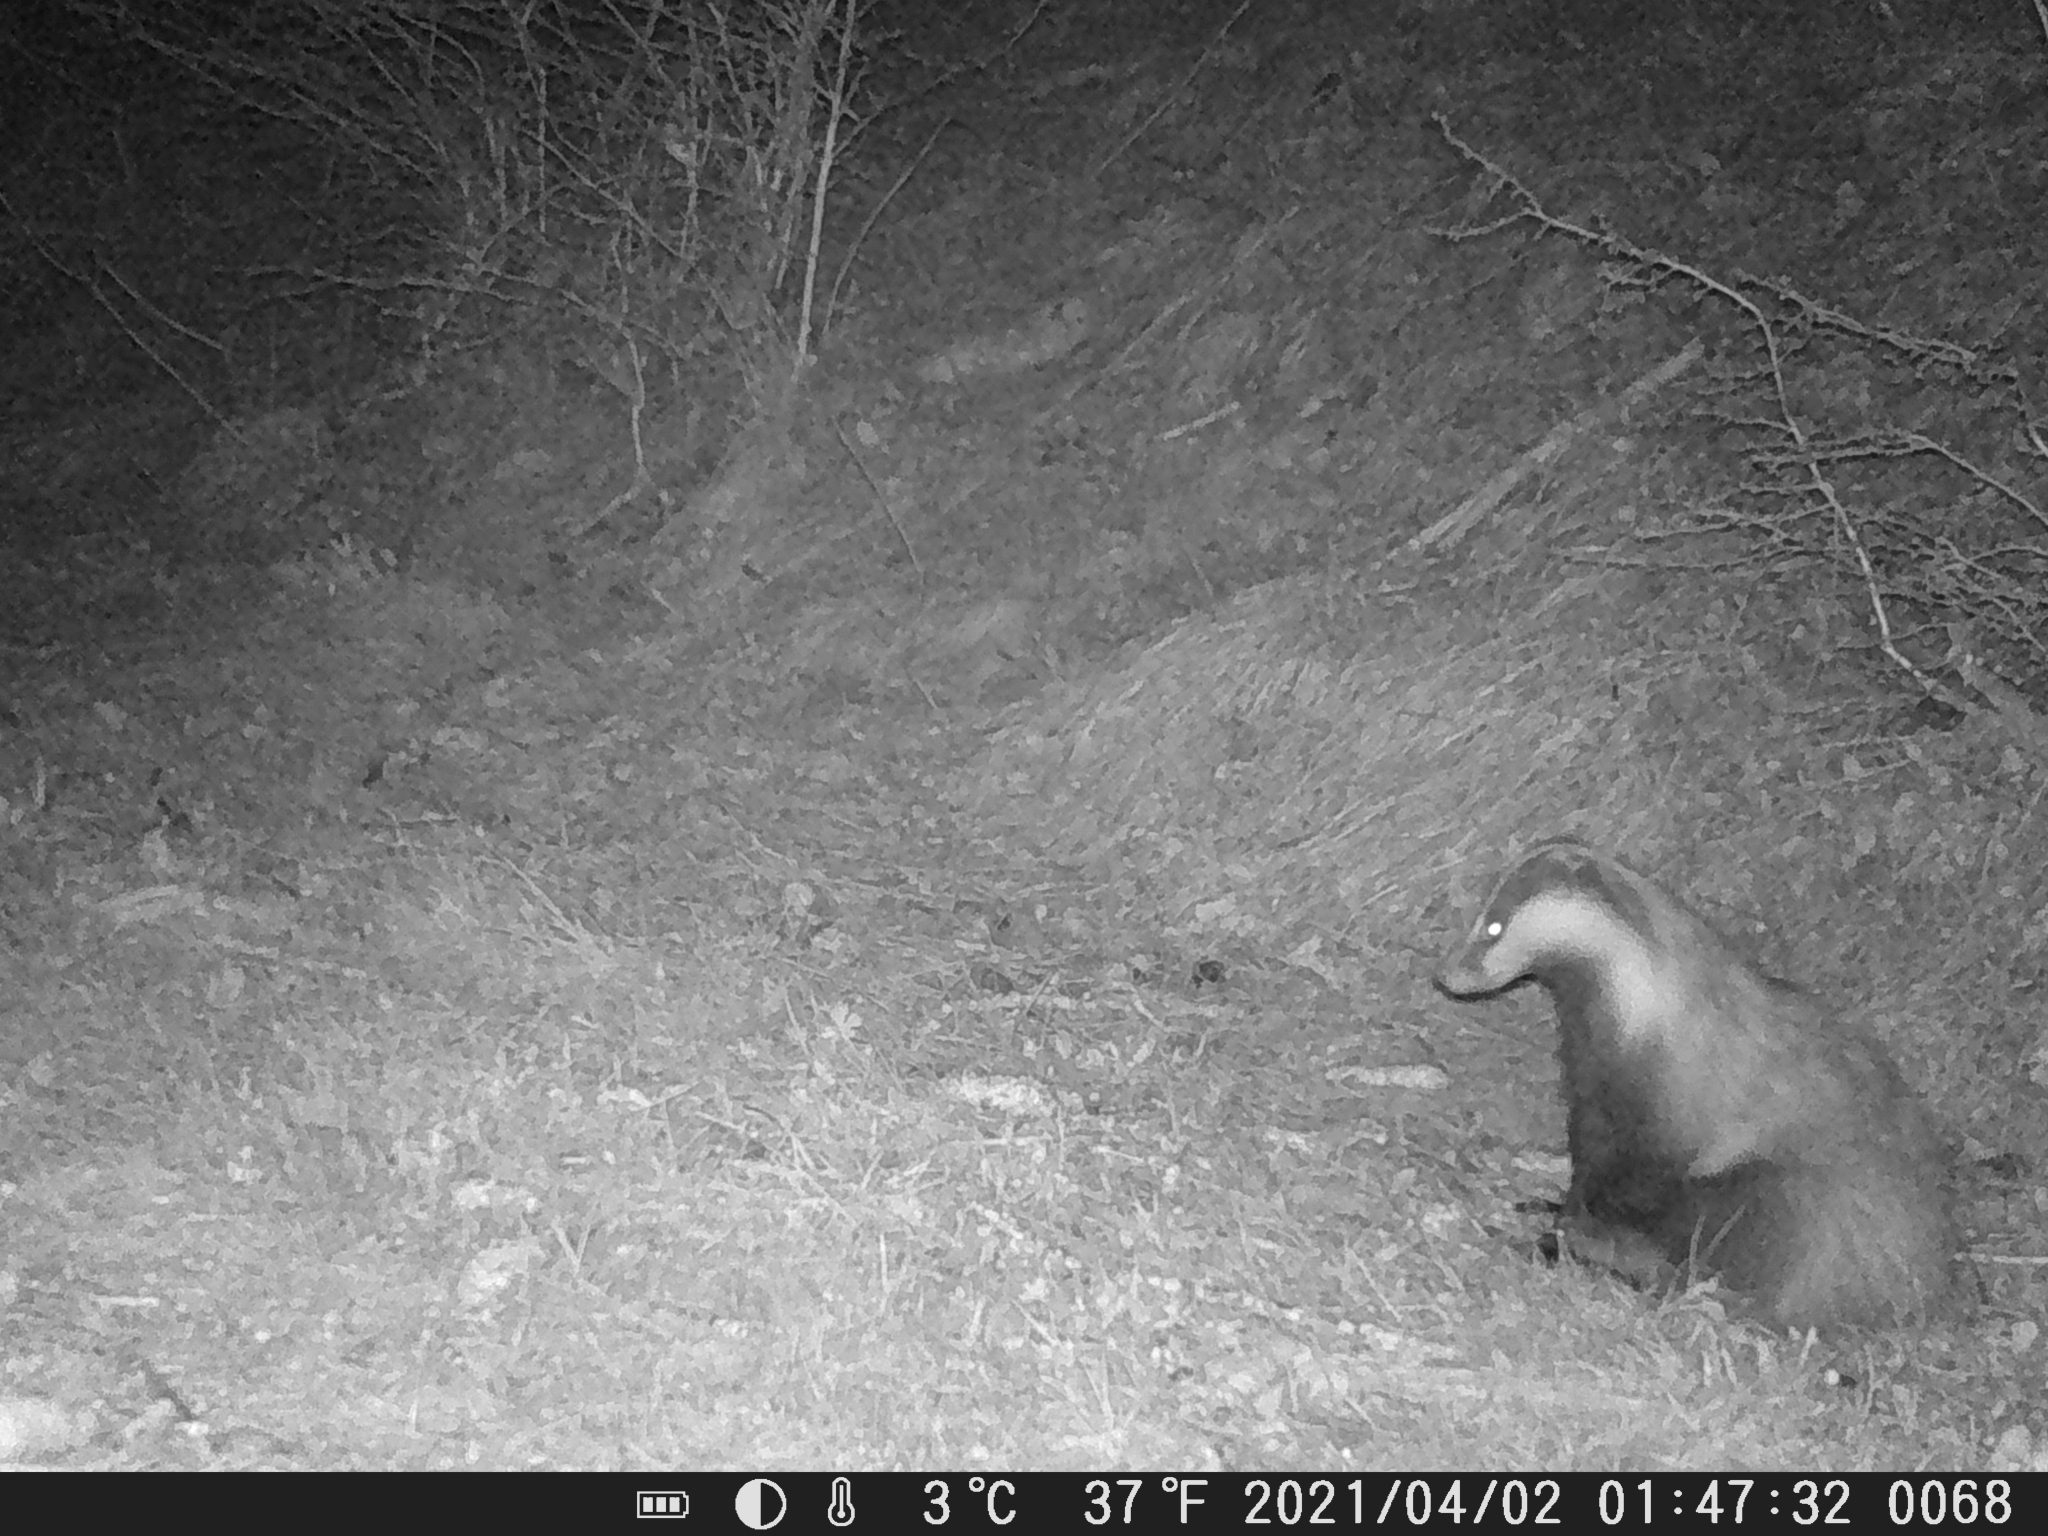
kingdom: Animalia
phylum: Chordata
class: Mammalia
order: Carnivora
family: Mustelidae
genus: Meles
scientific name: Meles meles
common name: Eurasian badger
